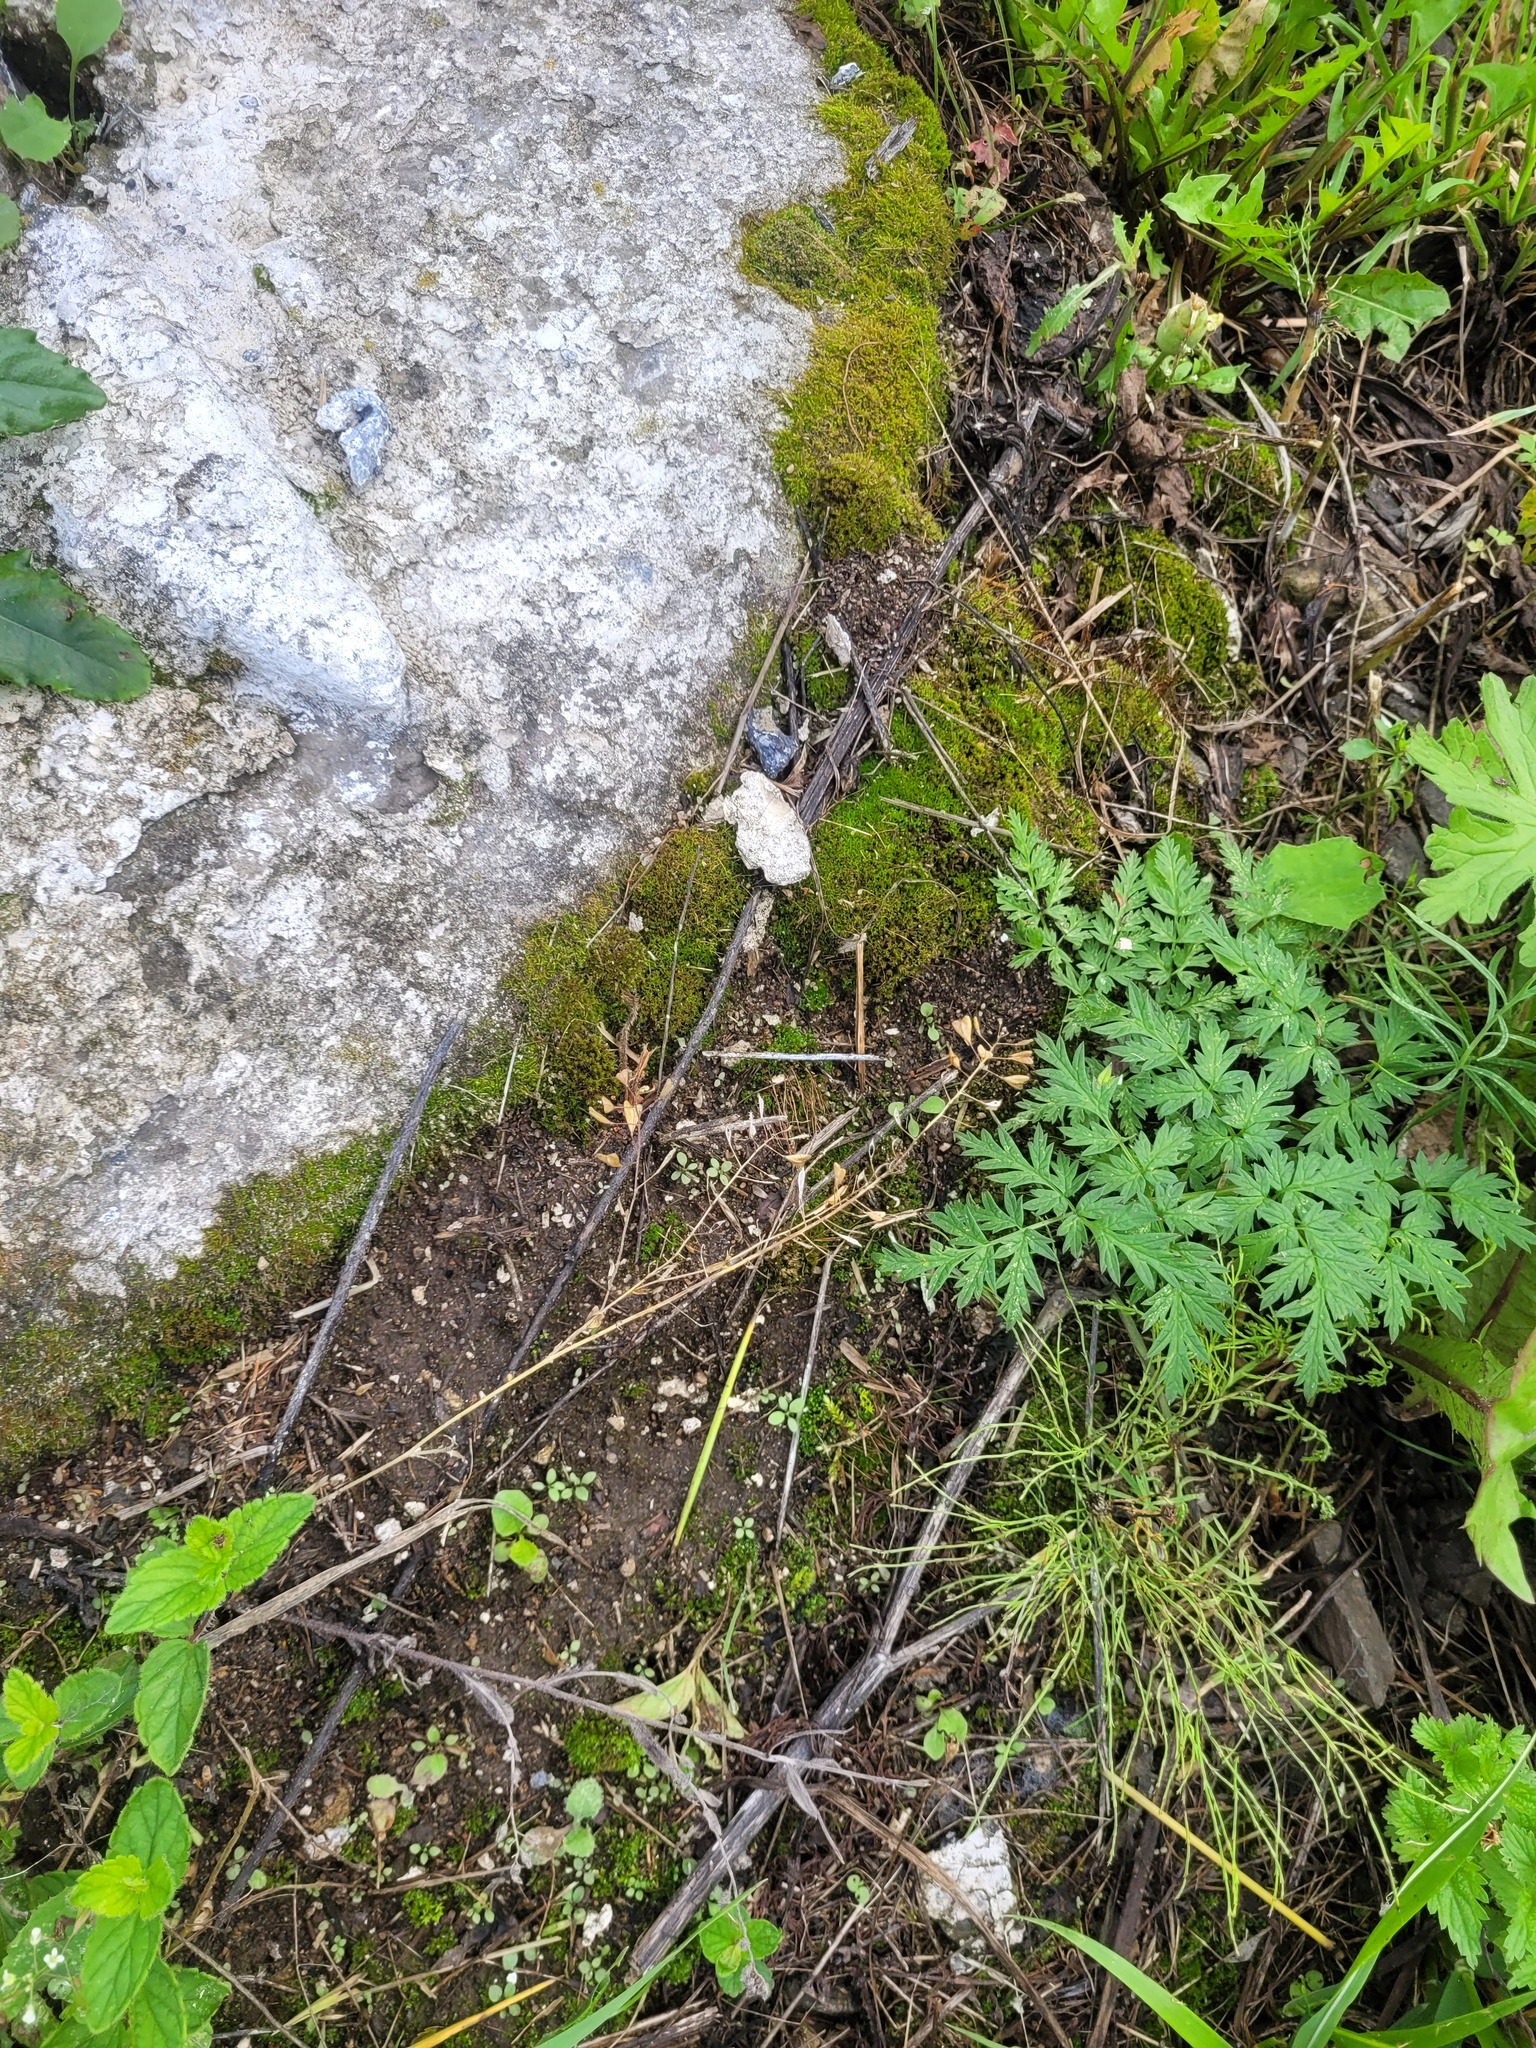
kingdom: Plantae
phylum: Tracheophyta
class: Magnoliopsida
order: Brassicales
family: Brassicaceae
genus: Capsella
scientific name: Capsella bursa-pastoris
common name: Shepherd's purse
